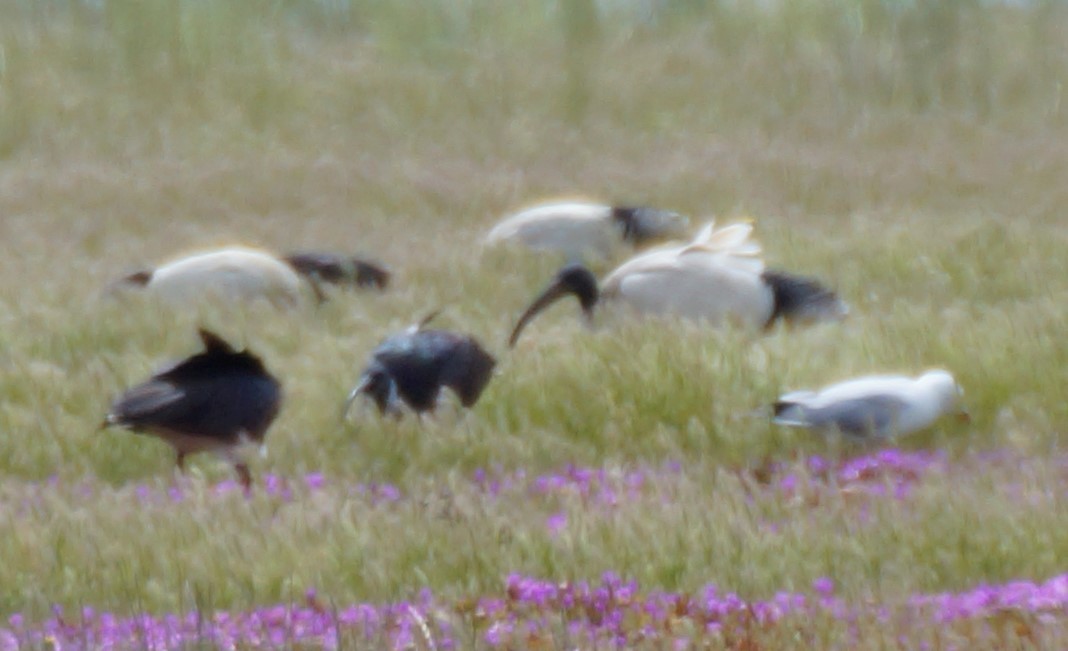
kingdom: Animalia
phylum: Chordata
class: Aves
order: Pelecaniformes
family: Threskiornithidae
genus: Threskiornis
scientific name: Threskiornis molucca
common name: Australian white ibis
